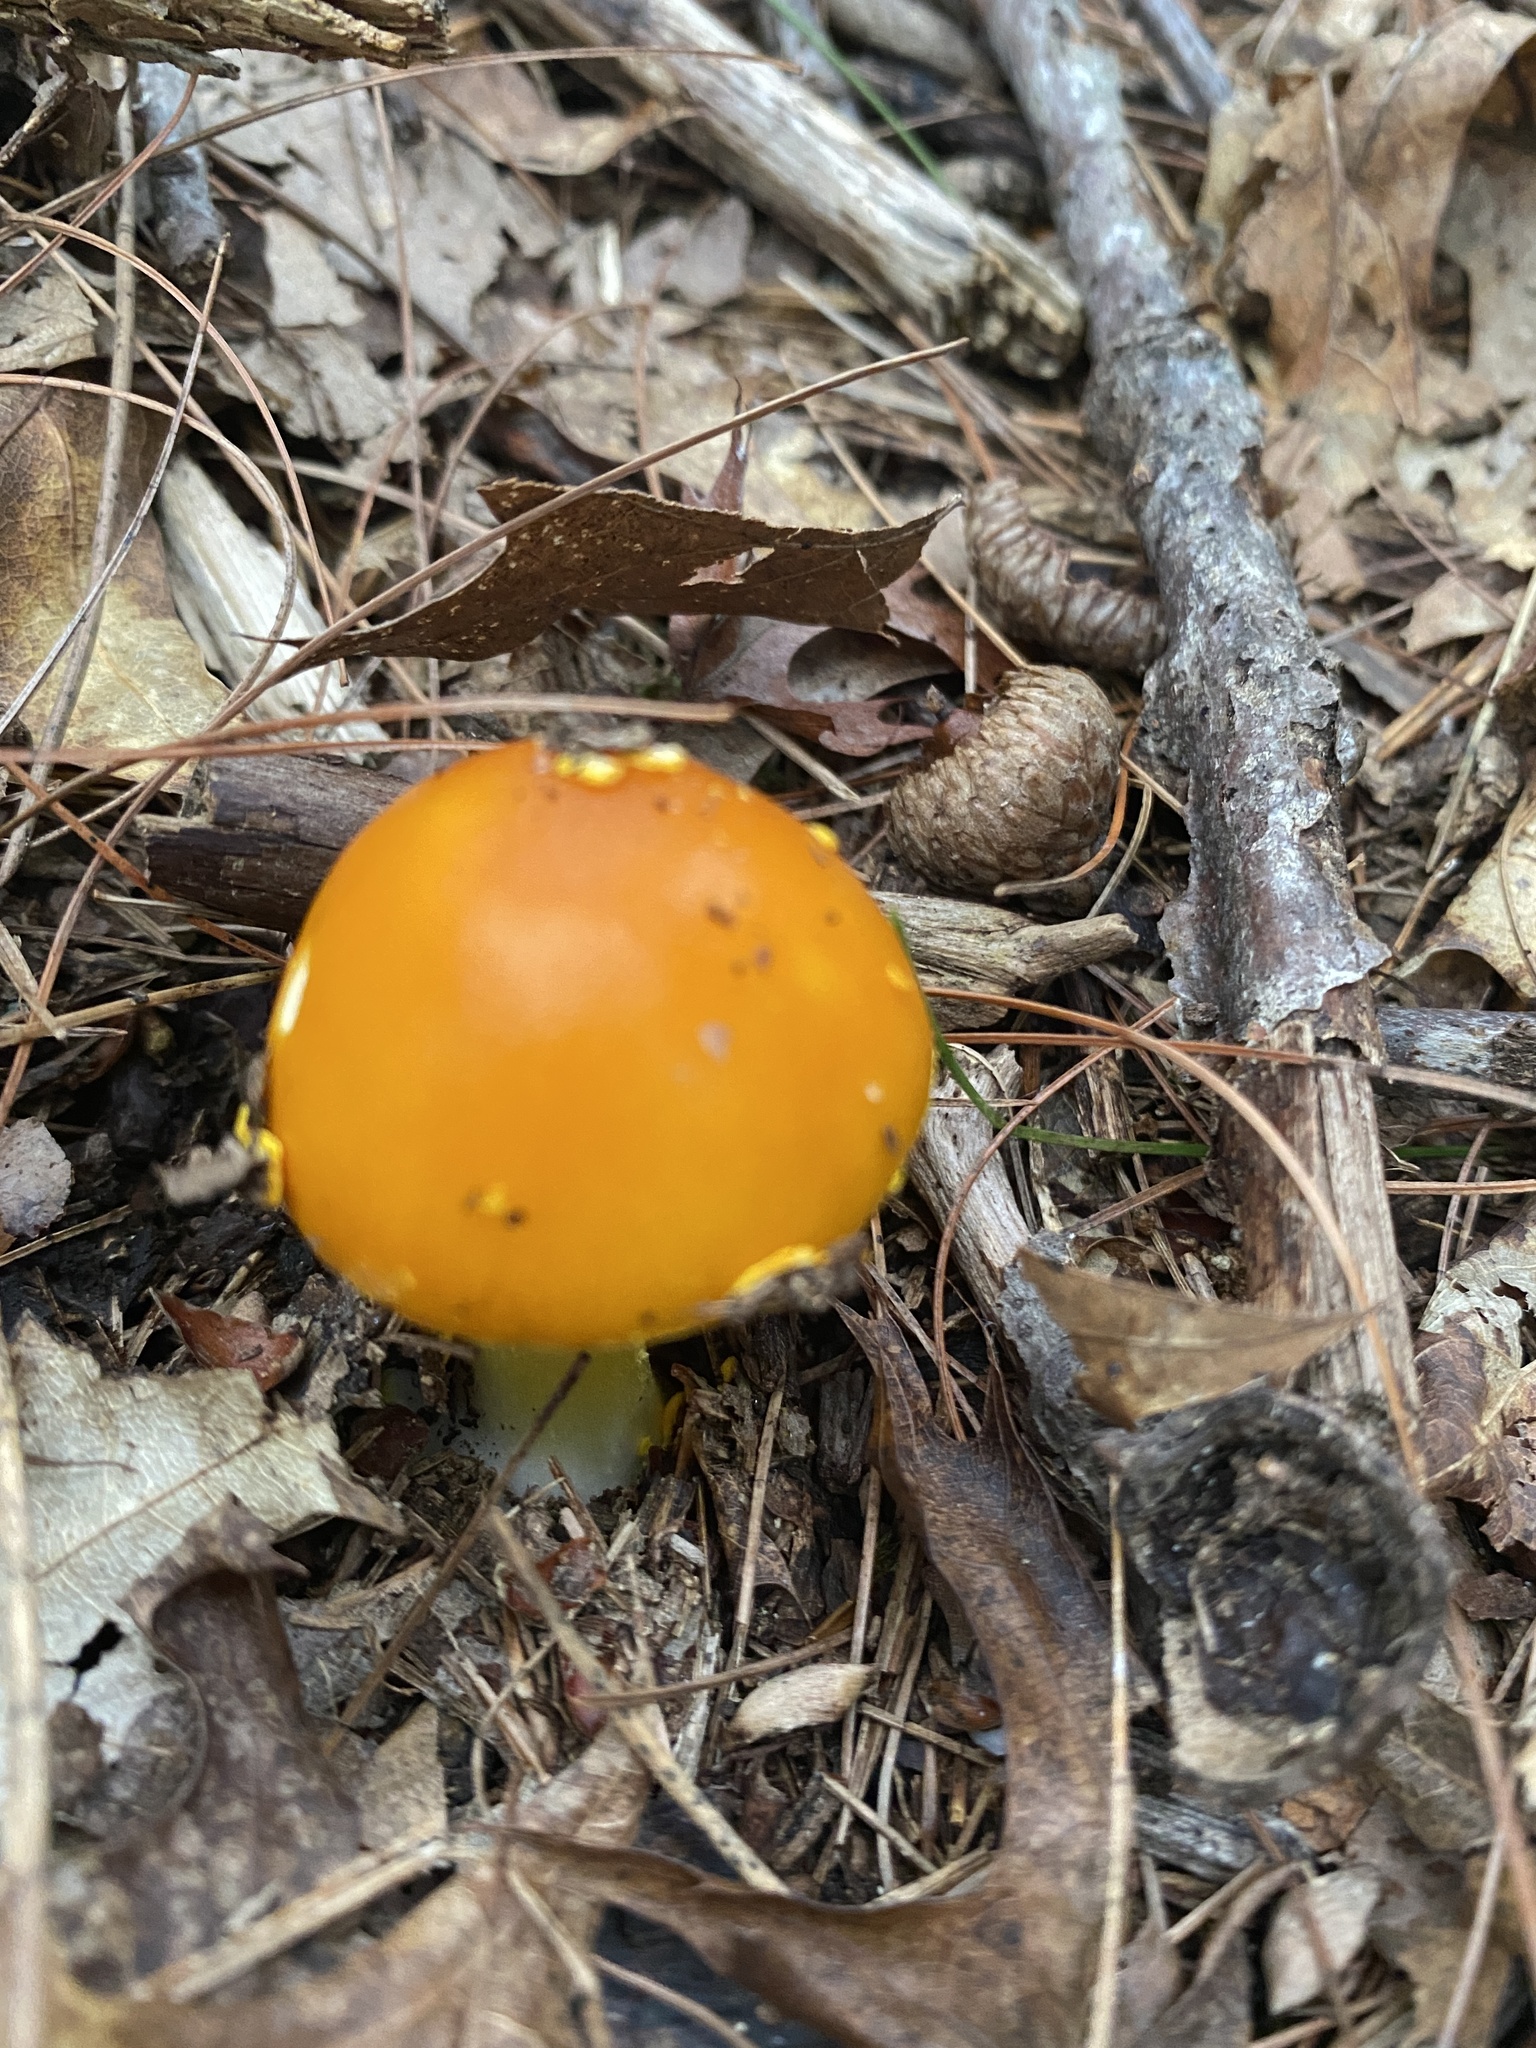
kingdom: Fungi
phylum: Basidiomycota
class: Agaricomycetes
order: Agaricales
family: Amanitaceae
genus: Amanita
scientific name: Amanita flavoconia
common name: Yellow patches
